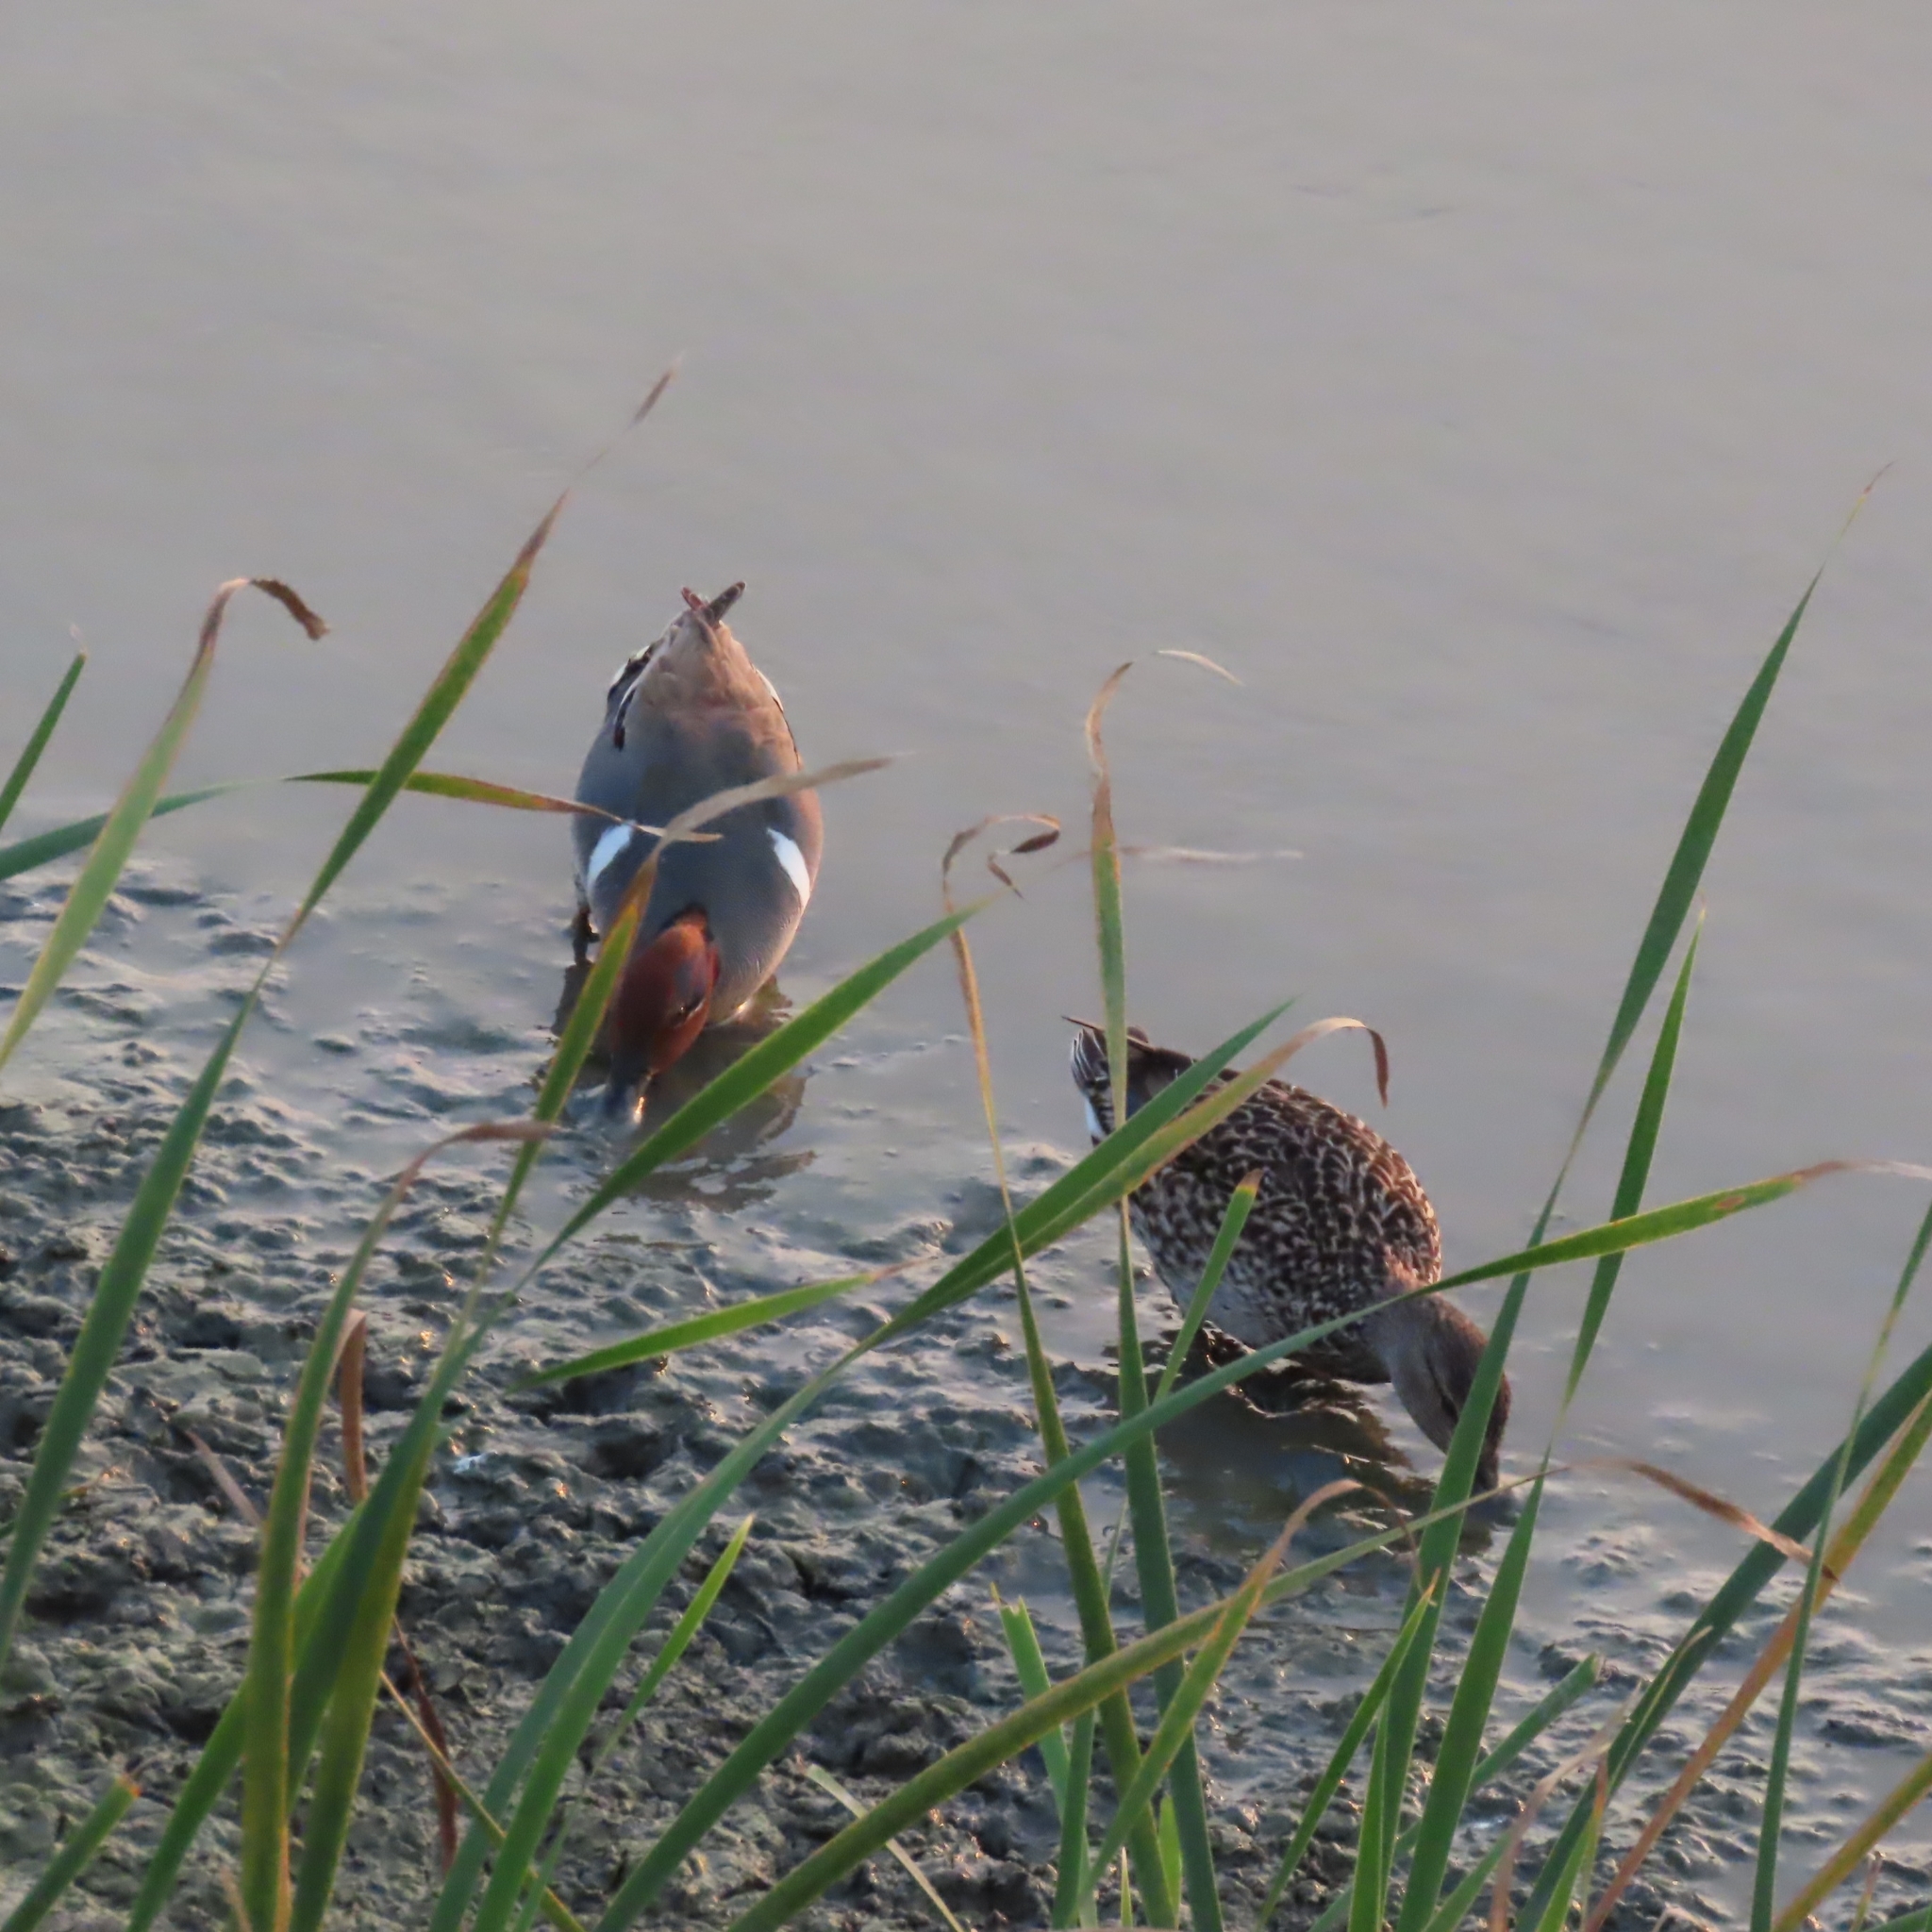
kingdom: Animalia
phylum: Chordata
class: Aves
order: Anseriformes
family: Anatidae
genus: Anas
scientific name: Anas crecca
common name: Eurasian teal
